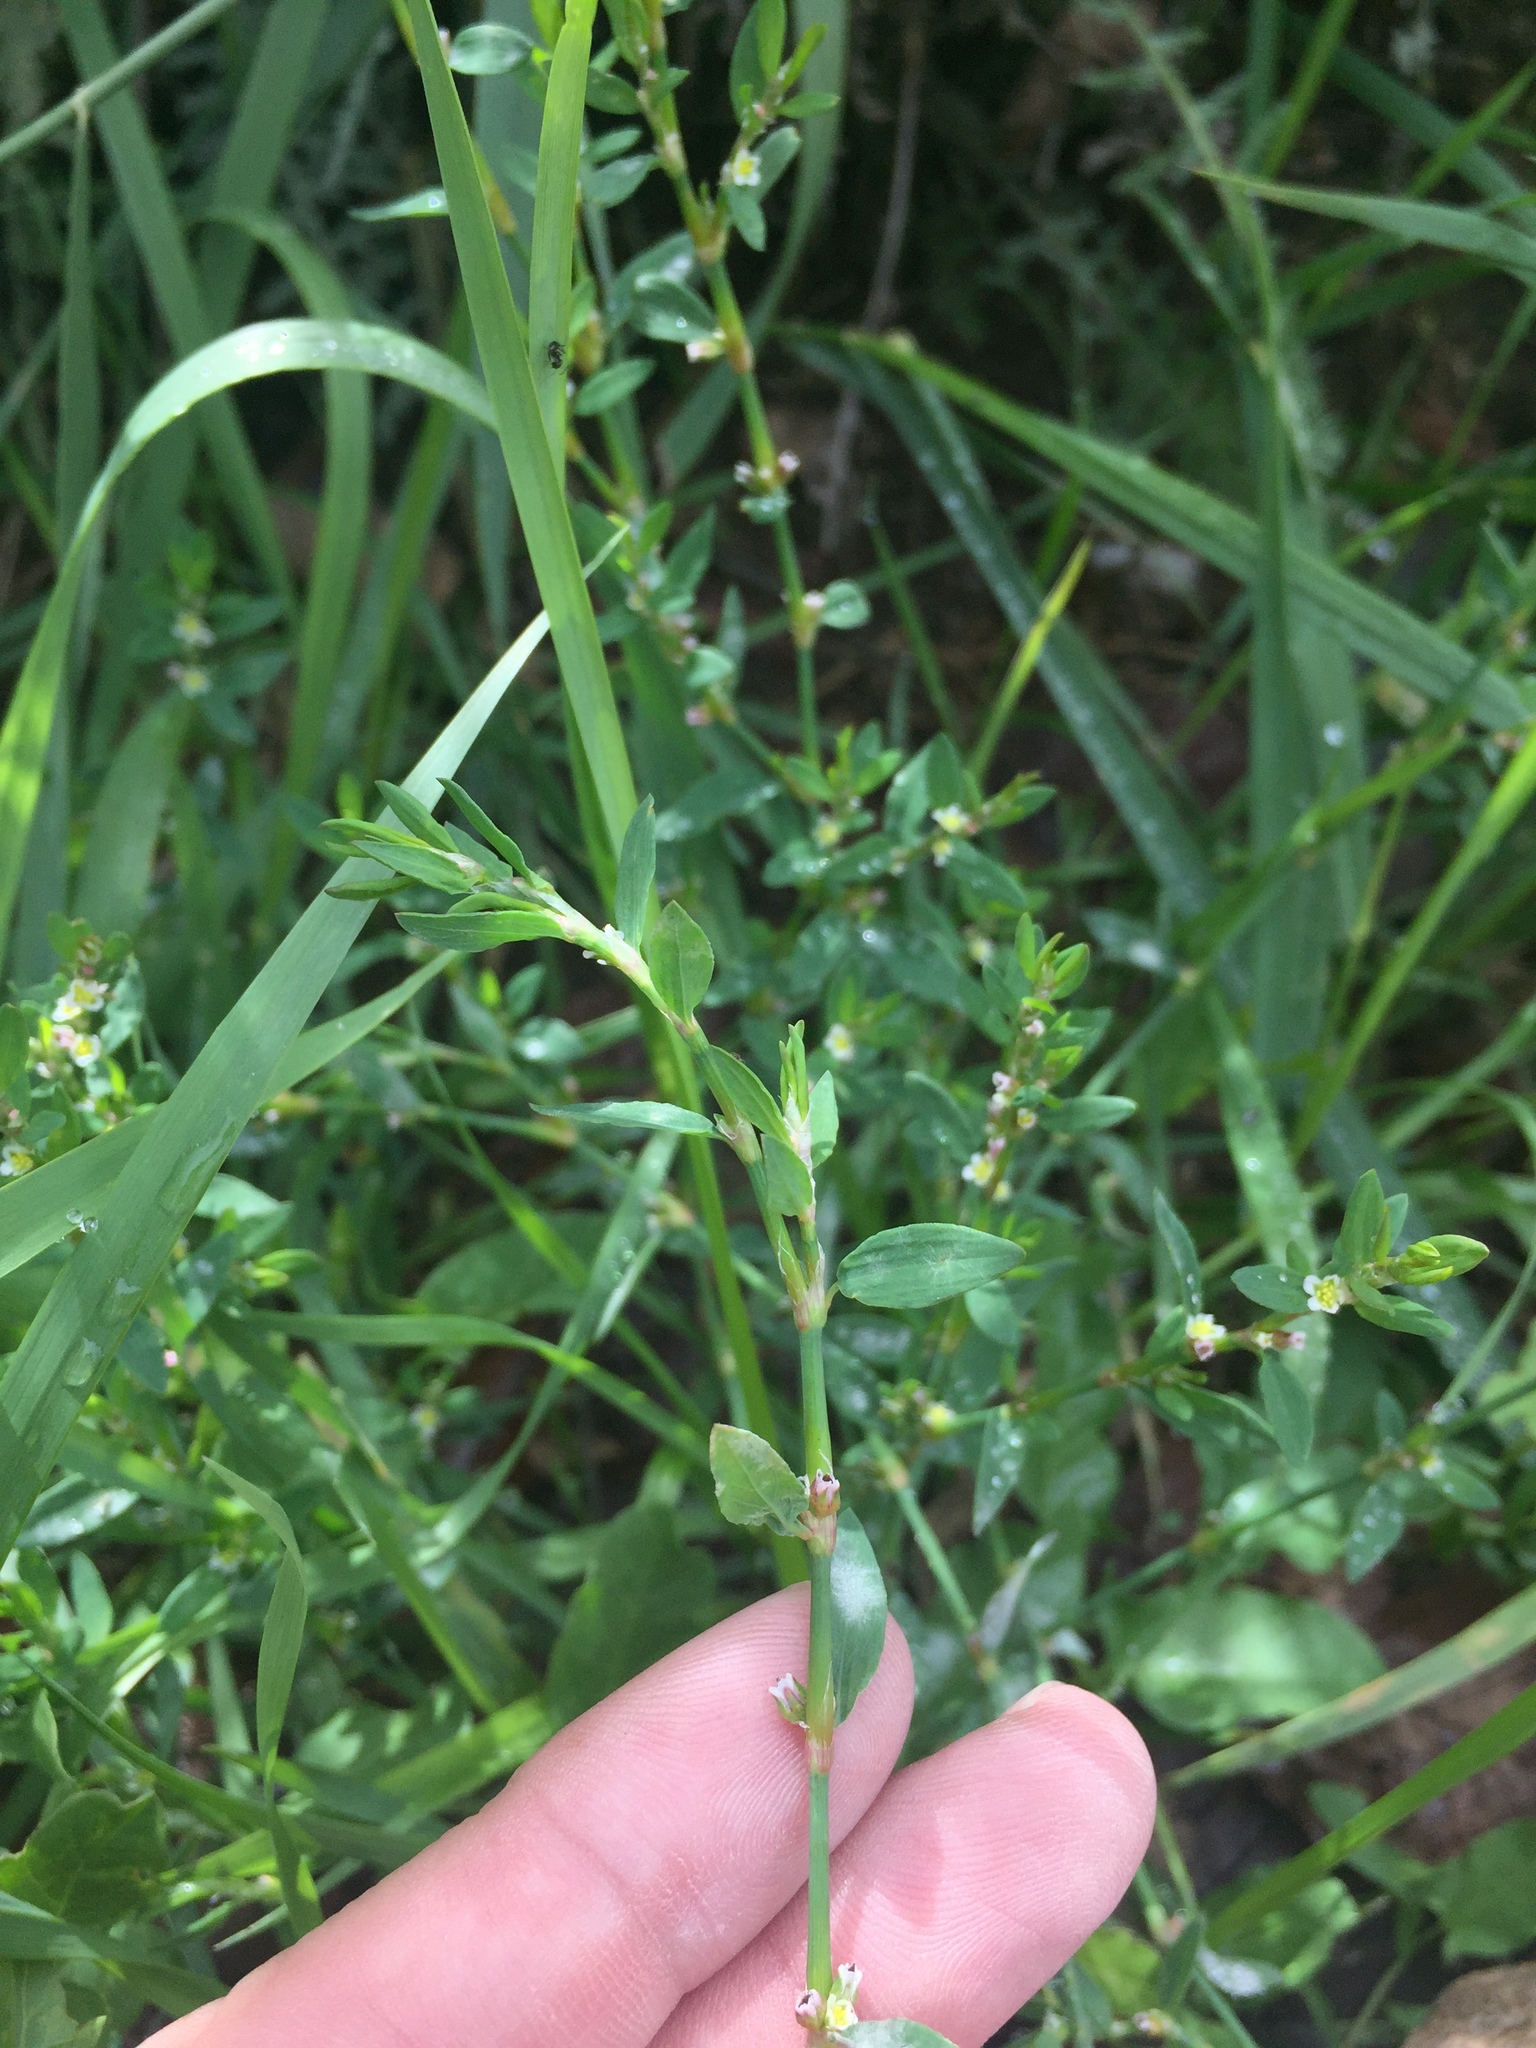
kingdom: Plantae
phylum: Tracheophyta
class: Magnoliopsida
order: Caryophyllales
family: Polygonaceae
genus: Polygonum
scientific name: Polygonum aviculare
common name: Prostrate knotweed
